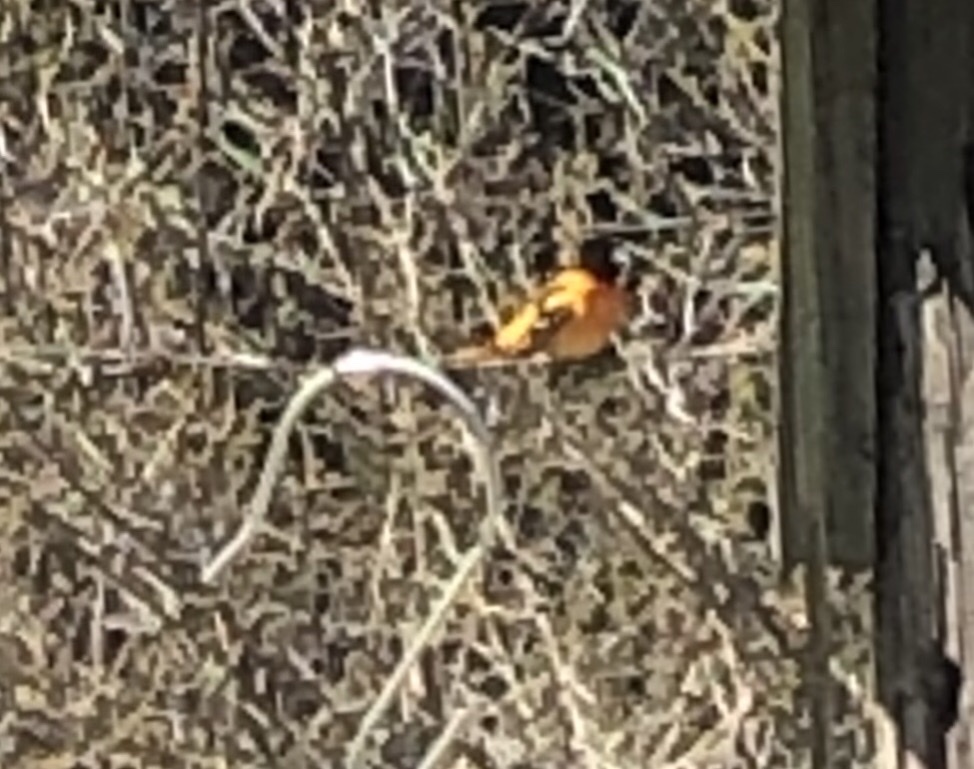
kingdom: Animalia
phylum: Chordata
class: Aves
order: Passeriformes
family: Icteridae
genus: Icterus
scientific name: Icterus galbula
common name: Baltimore oriole
